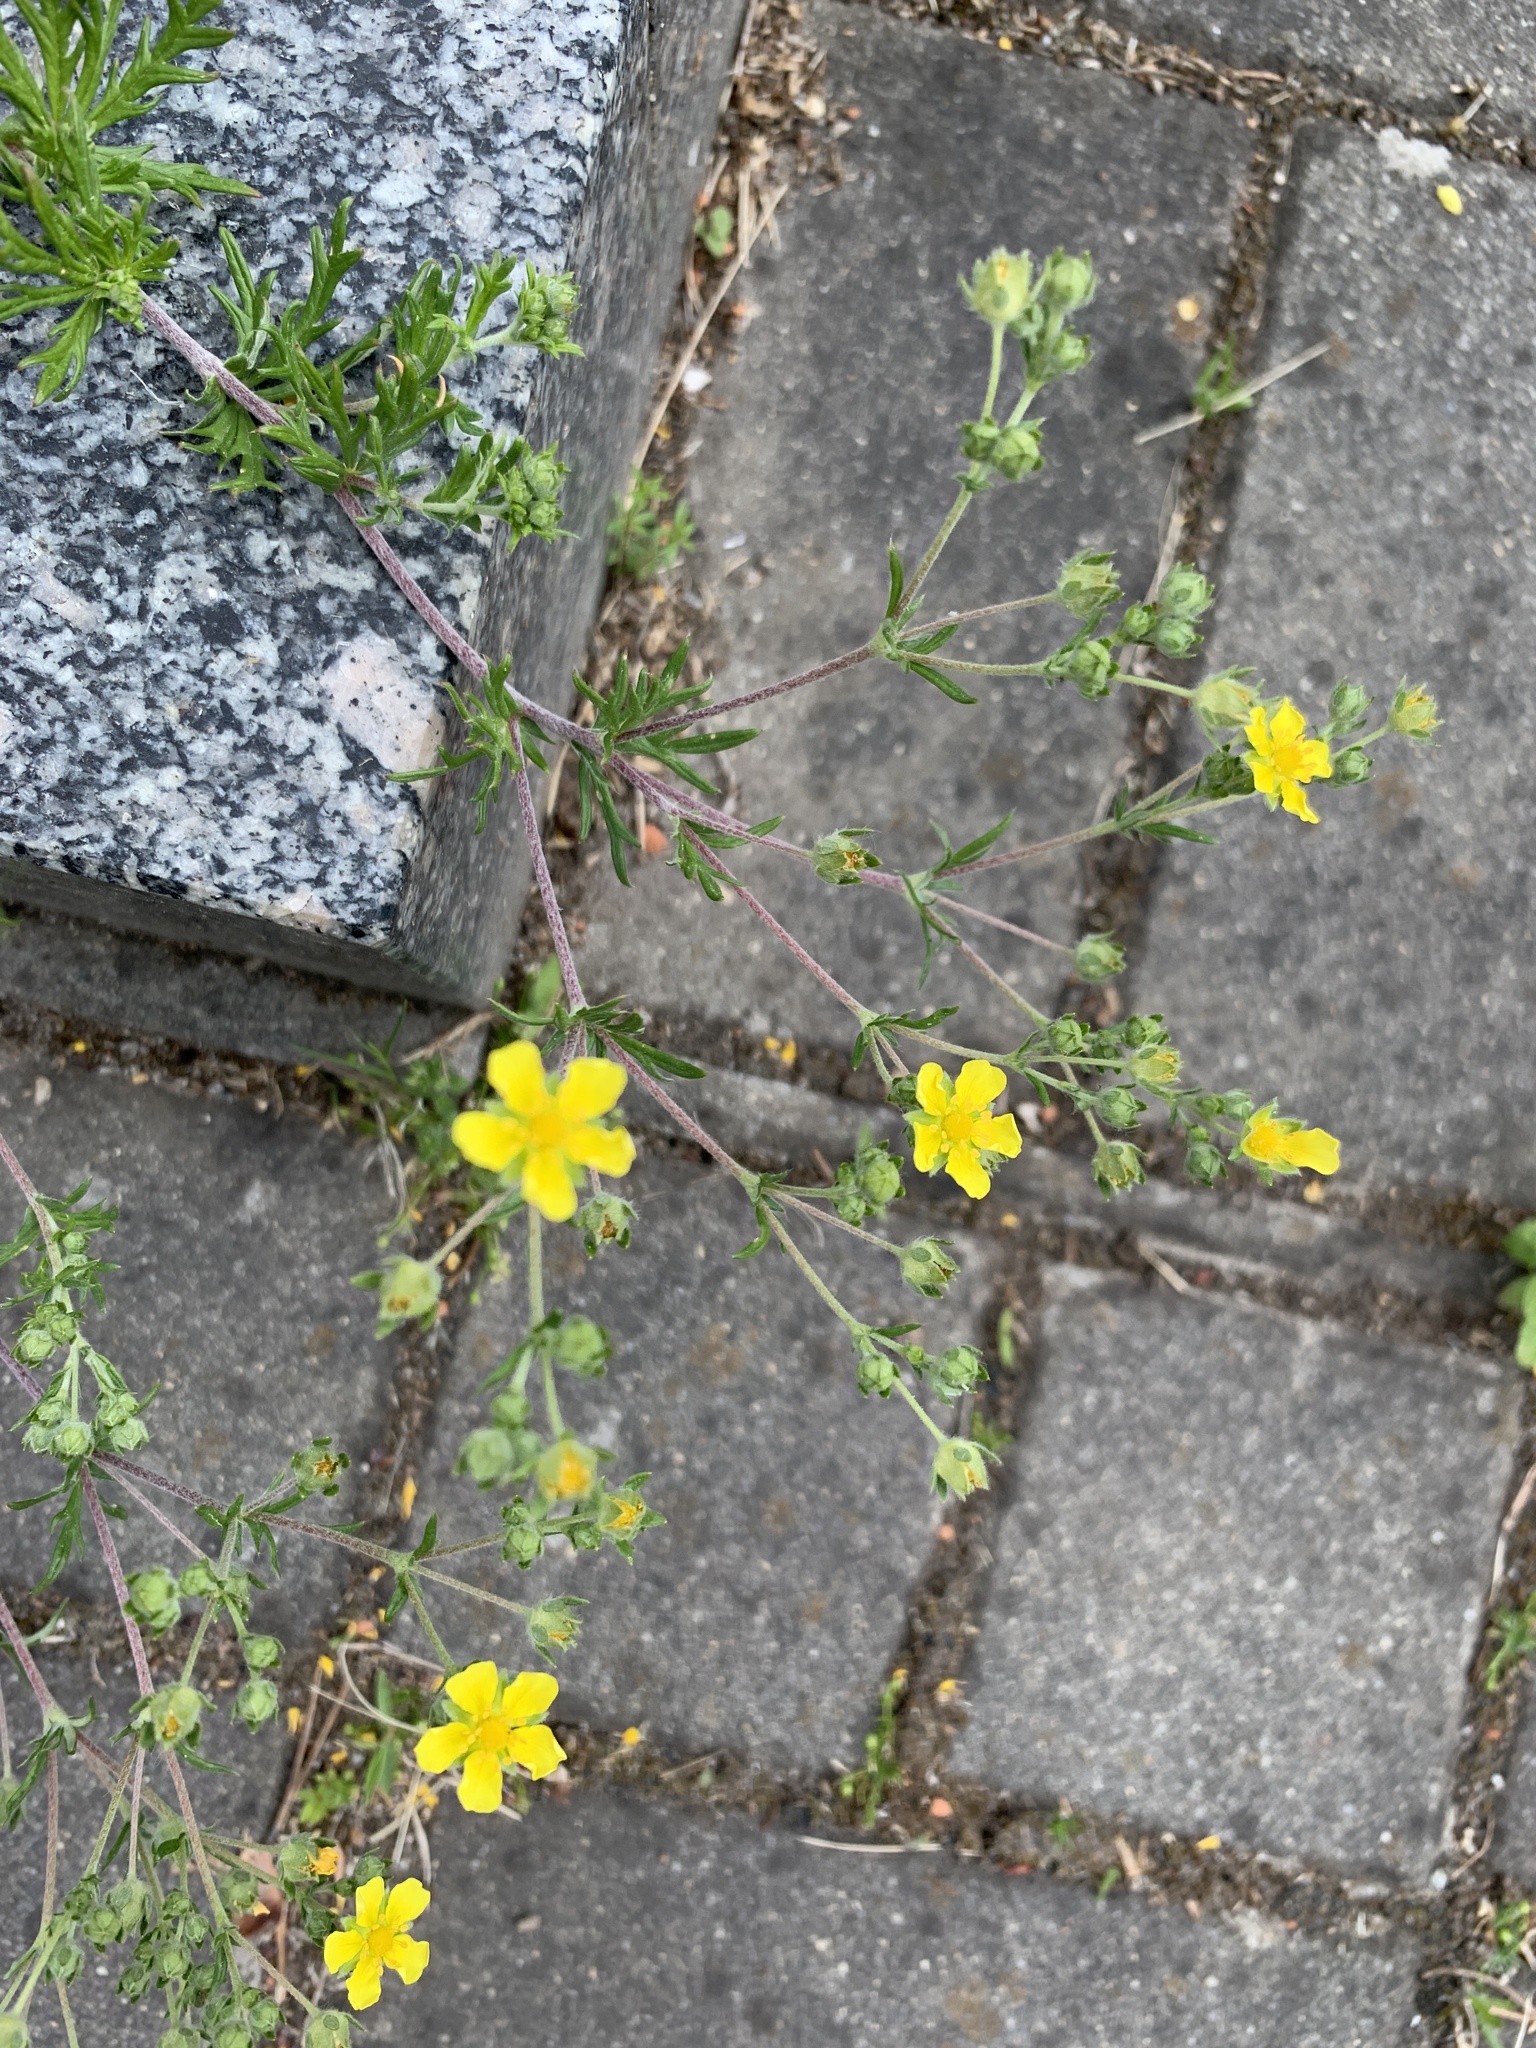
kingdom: Plantae
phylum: Tracheophyta
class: Magnoliopsida
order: Rosales
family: Rosaceae
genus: Potentilla
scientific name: Potentilla argentea
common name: Hoary cinquefoil
